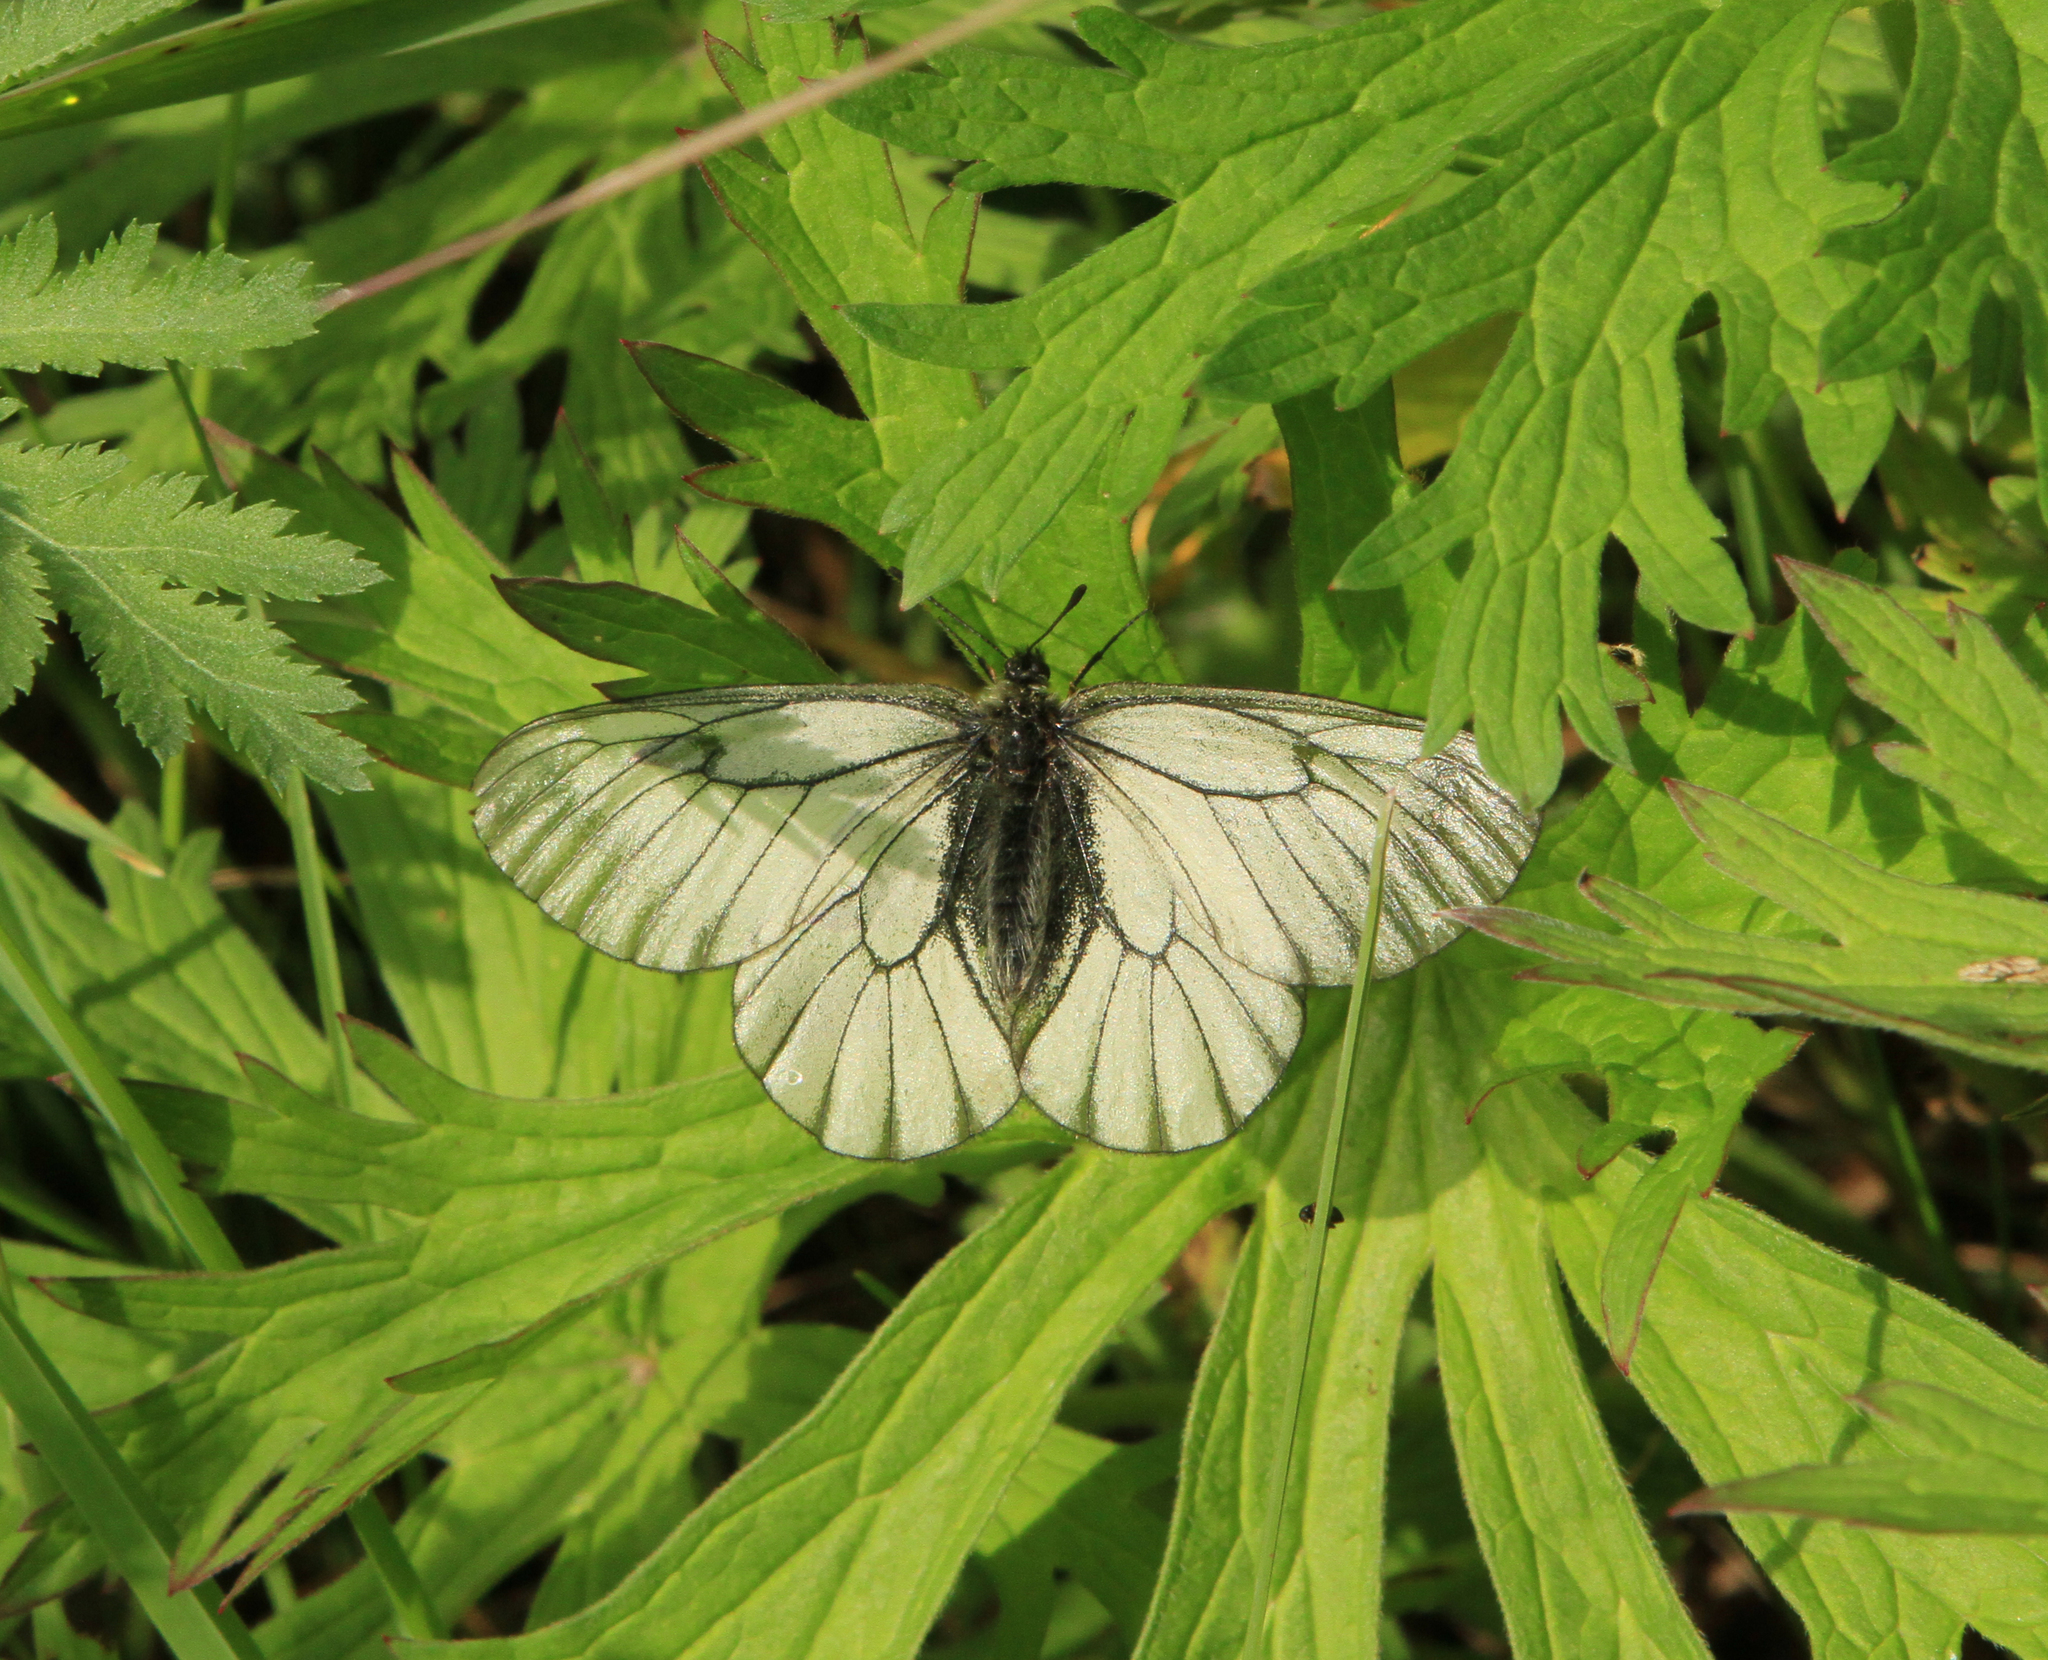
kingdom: Animalia
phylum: Arthropoda
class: Insecta
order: Lepidoptera
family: Papilionidae
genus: Parnassius
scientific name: Parnassius stubbendorfii
